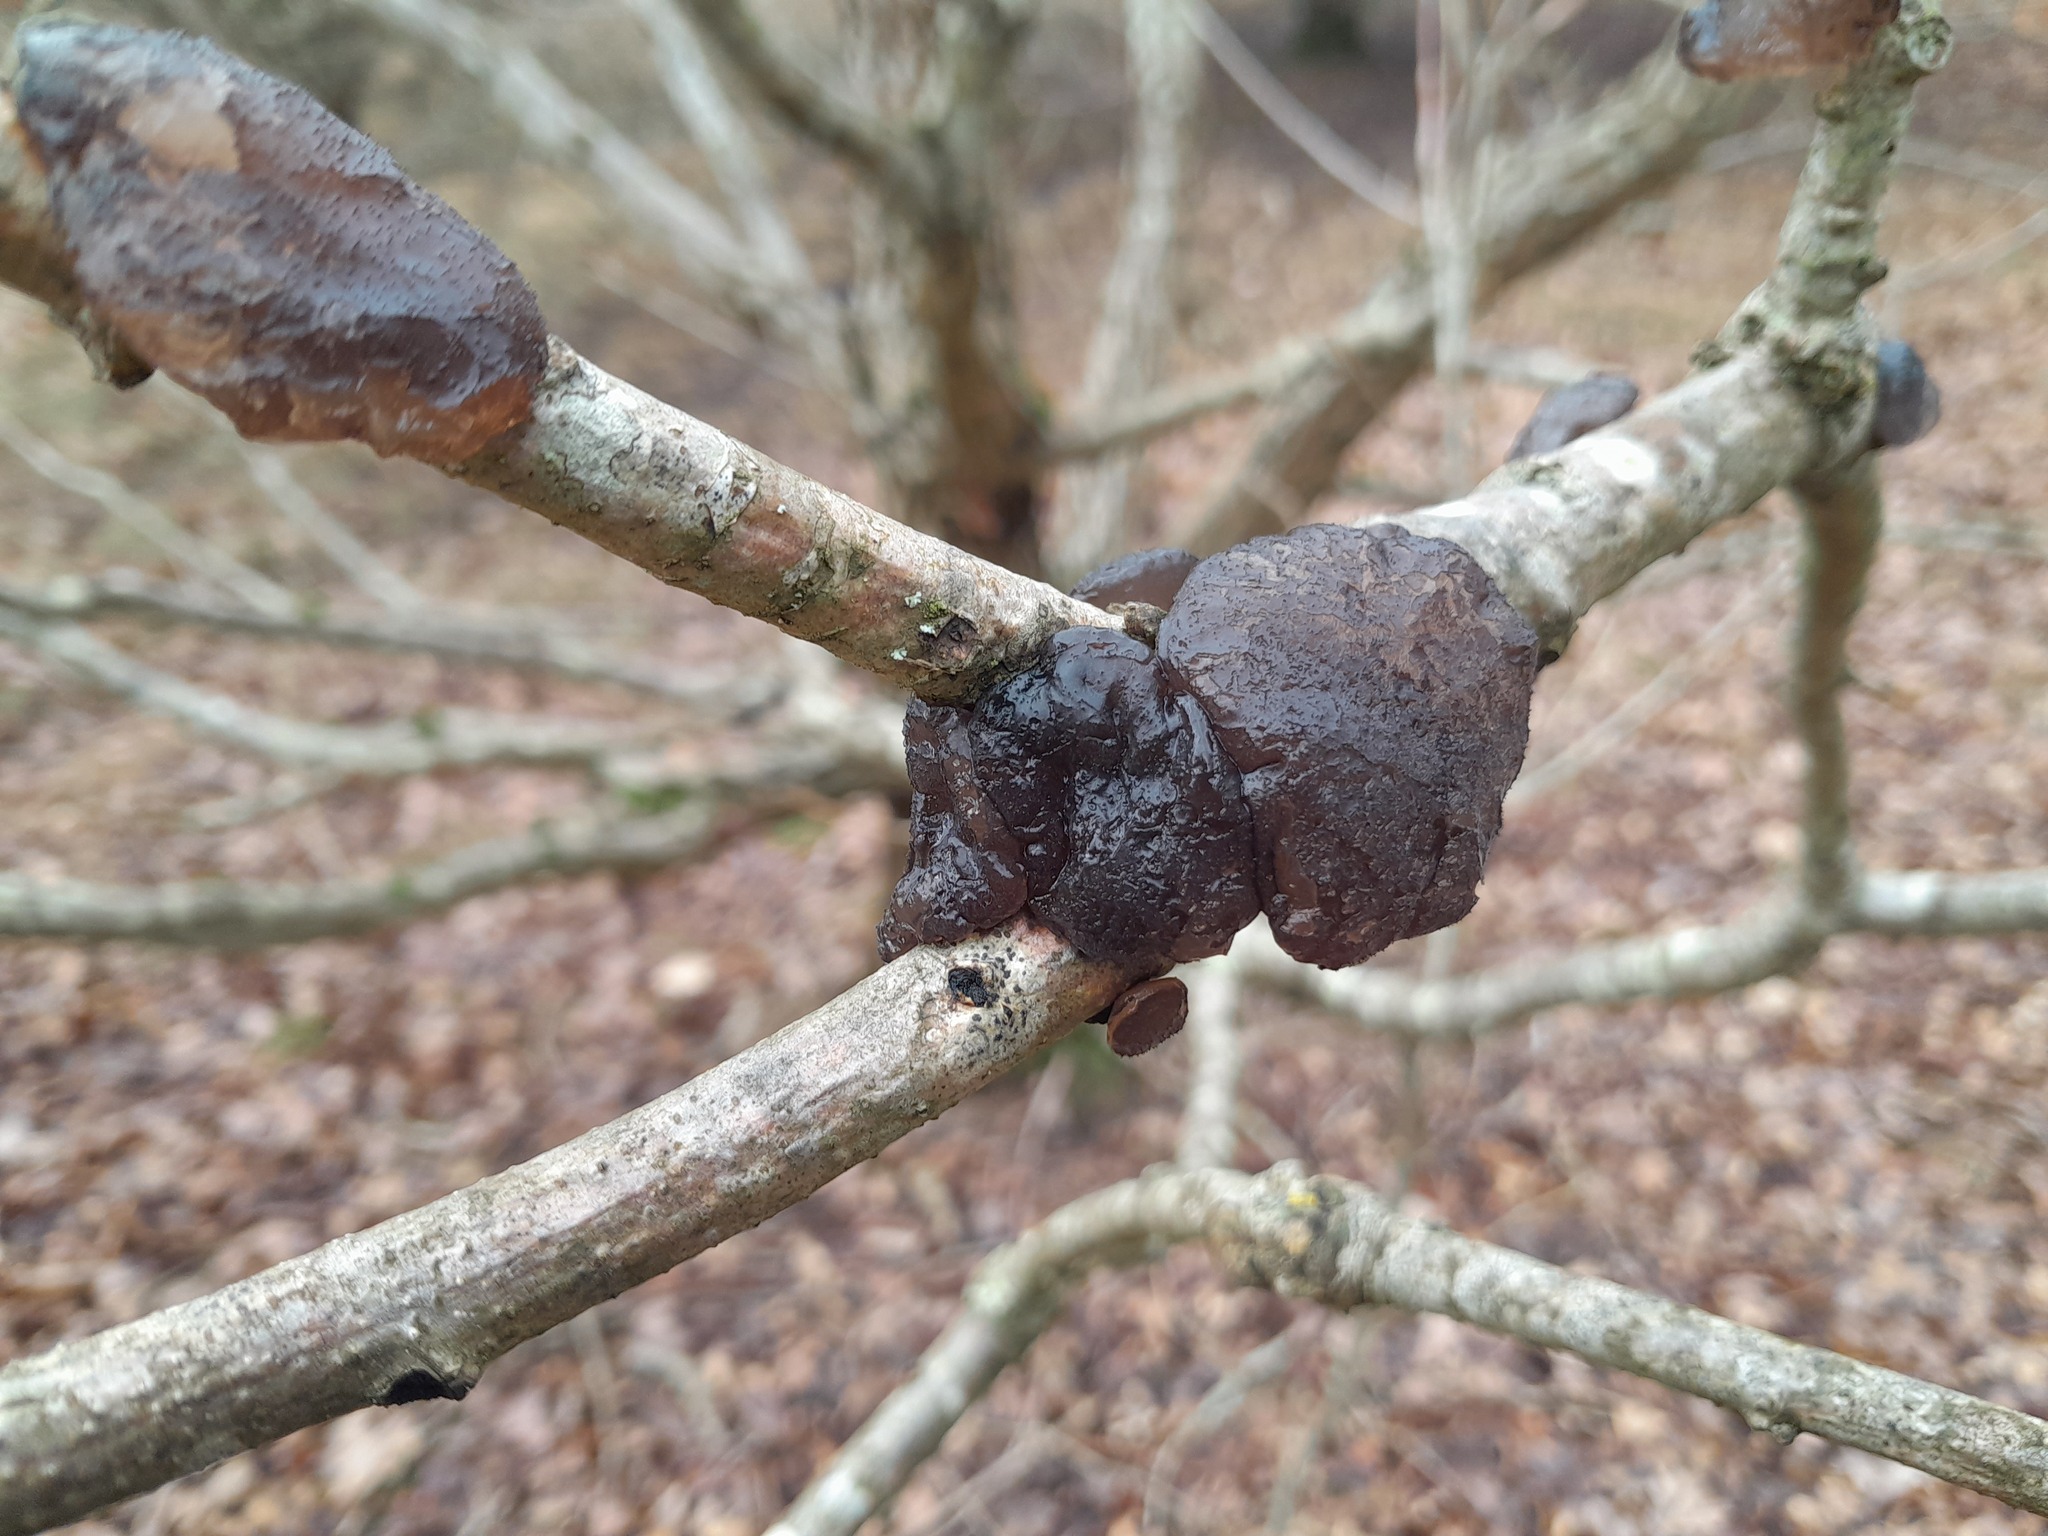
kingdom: Fungi
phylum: Basidiomycota
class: Agaricomycetes
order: Auriculariales
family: Auriculariaceae
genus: Exidia
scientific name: Exidia glandulosa
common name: Witches' butter
